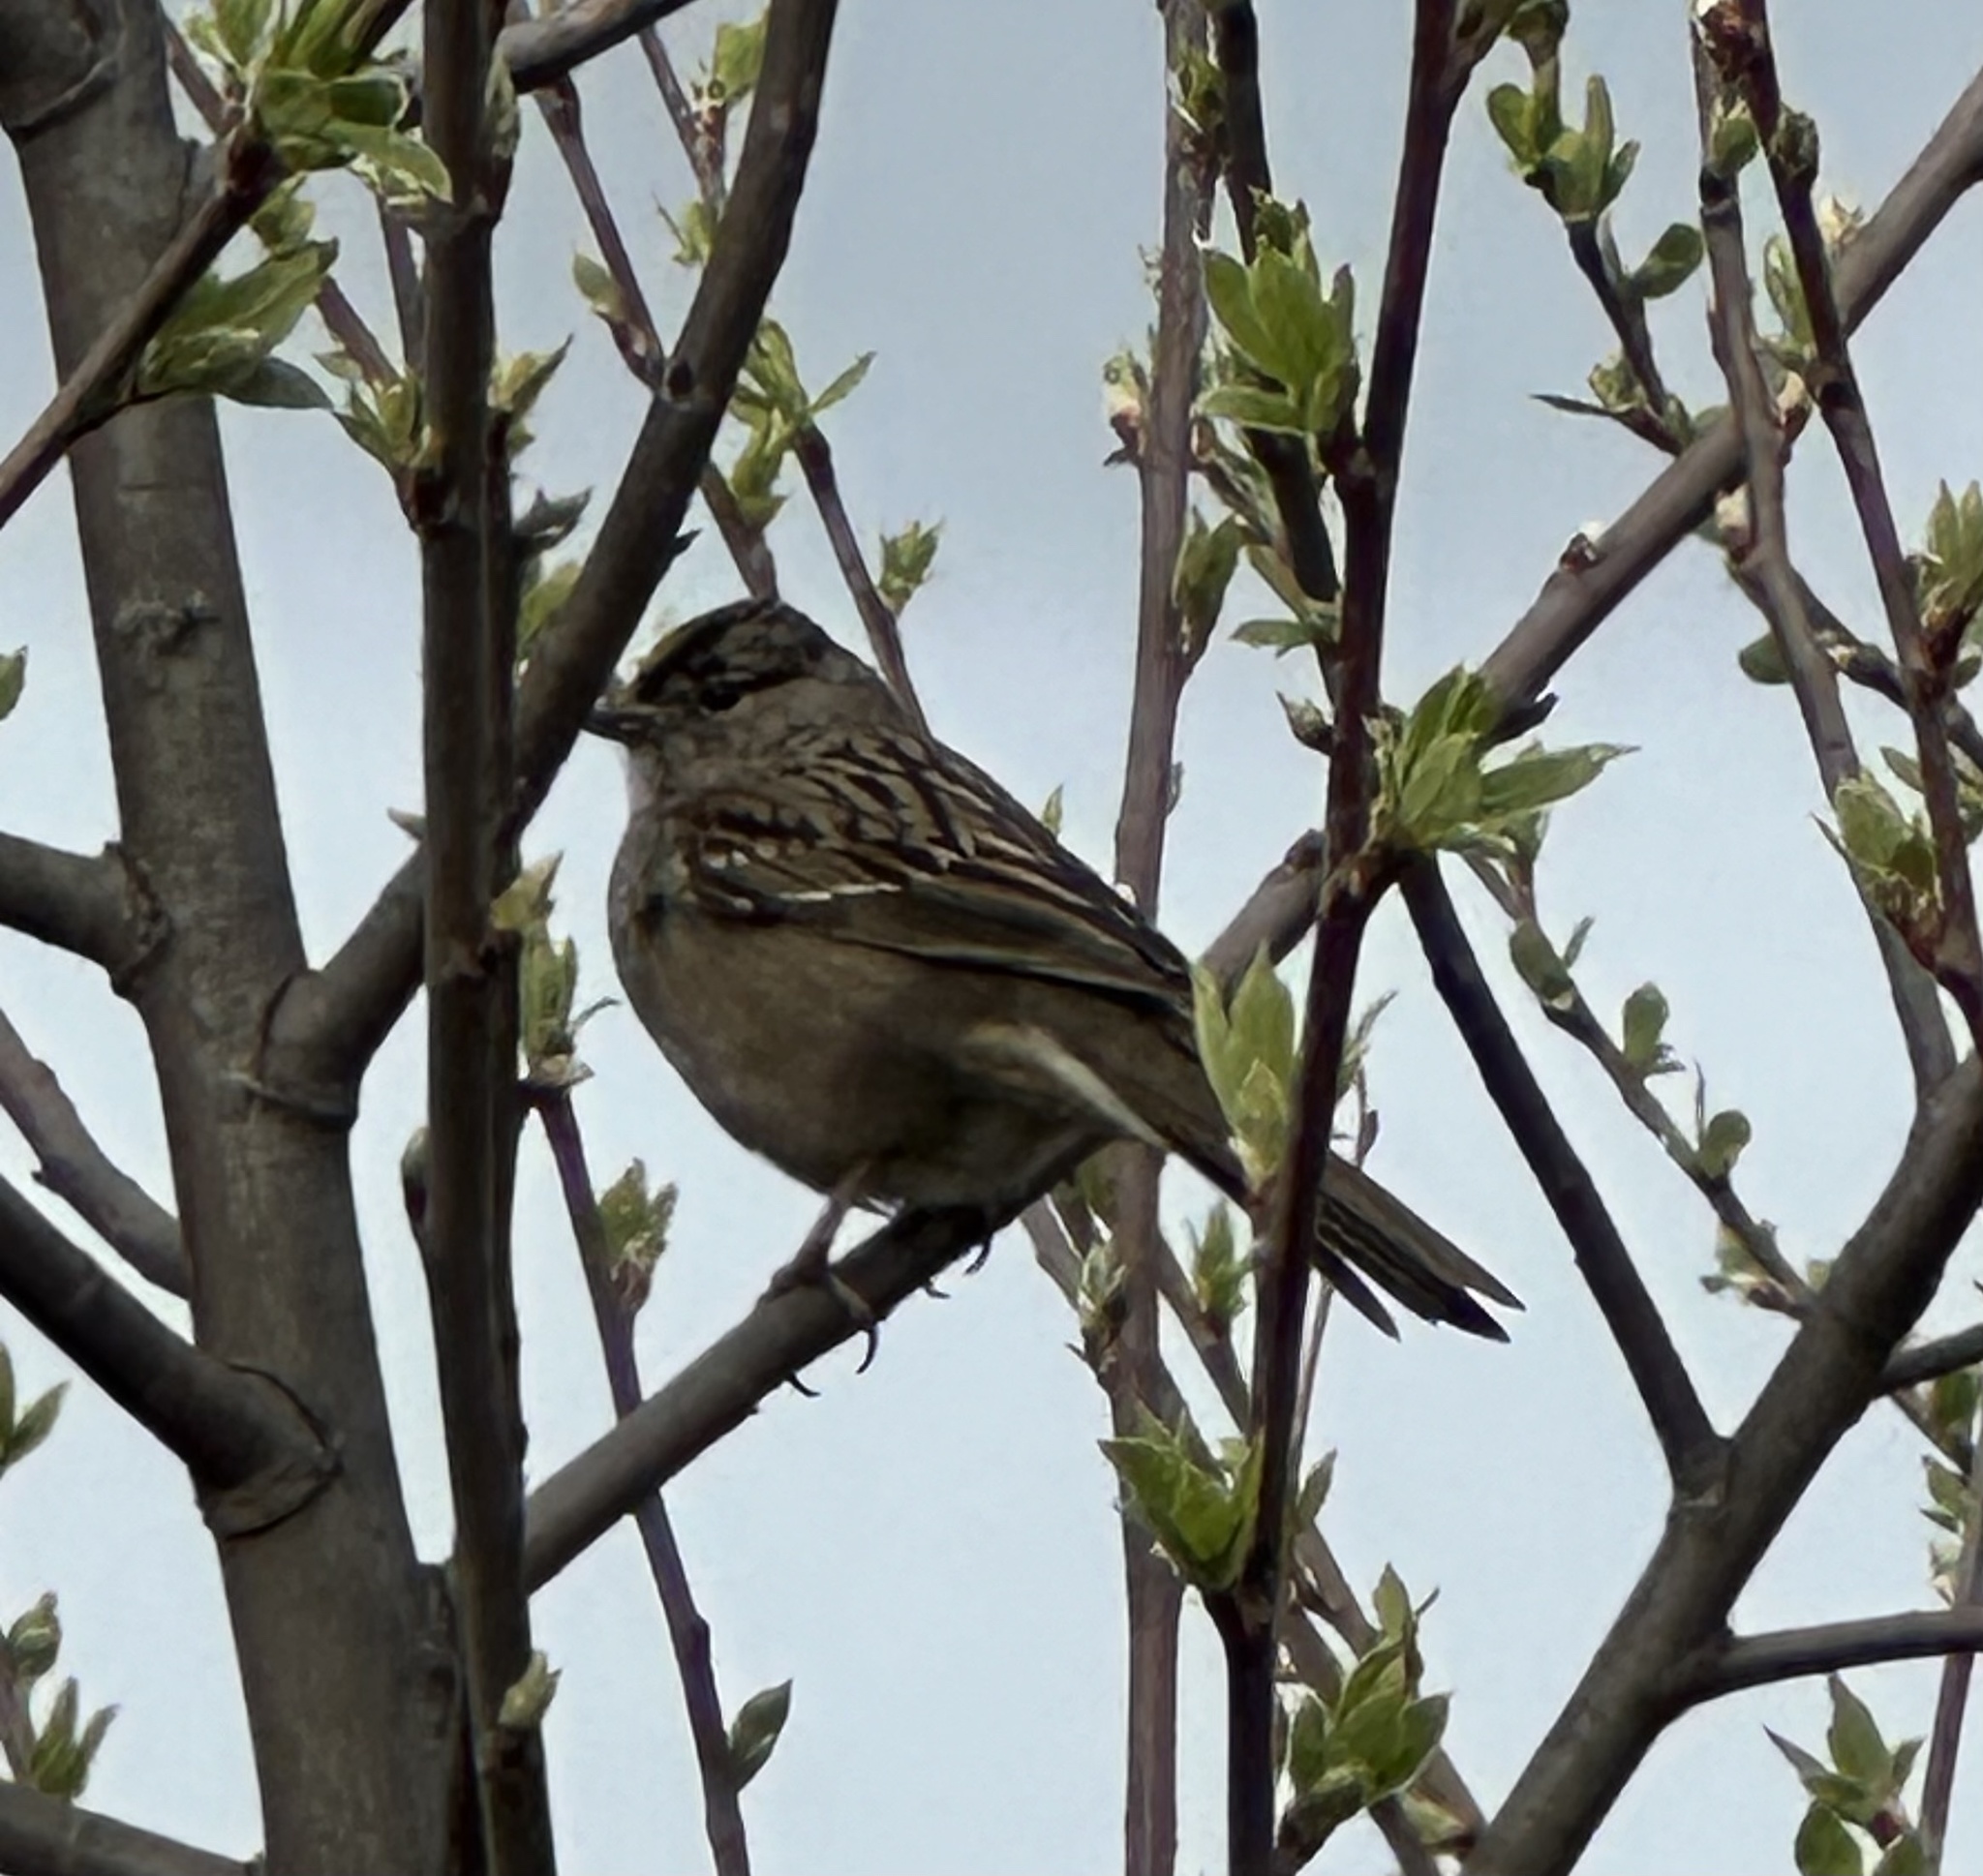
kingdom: Animalia
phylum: Chordata
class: Aves
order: Passeriformes
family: Passerellidae
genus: Zonotrichia
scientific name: Zonotrichia atricapilla
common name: Golden-crowned sparrow
